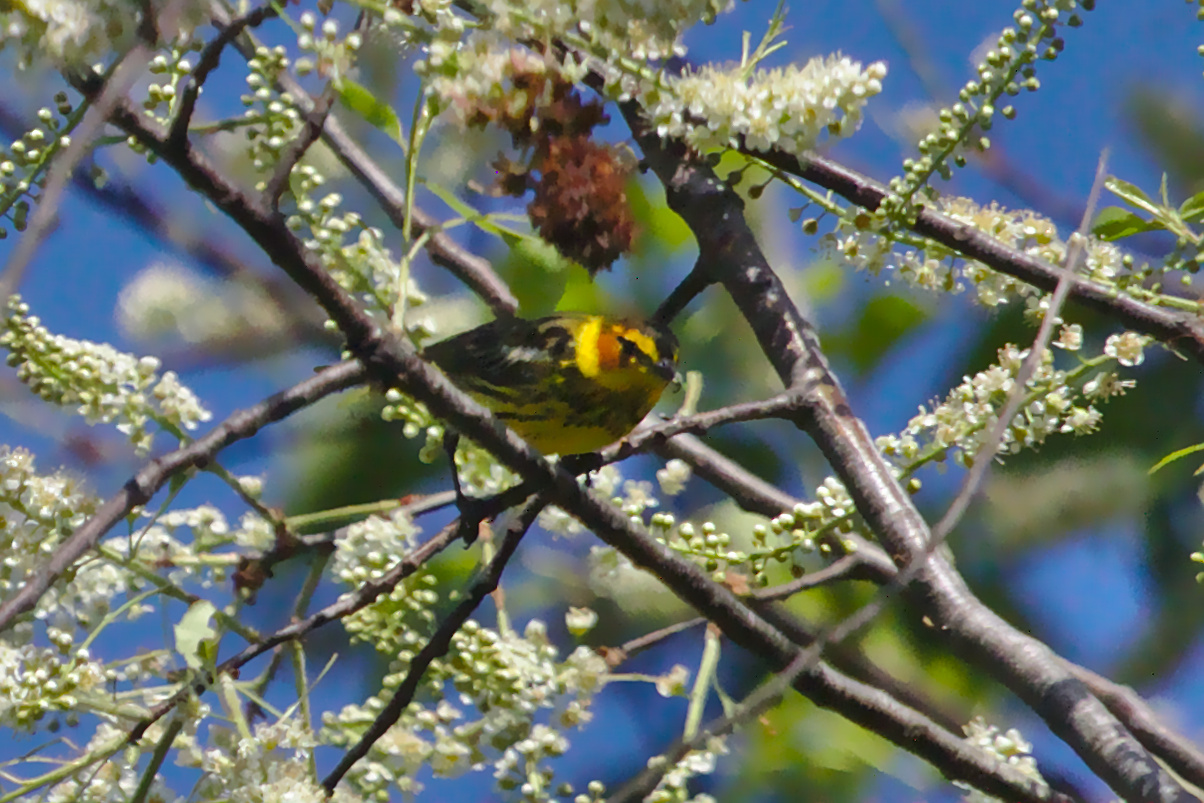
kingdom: Animalia
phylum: Chordata
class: Aves
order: Passeriformes
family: Parulidae
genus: Setophaga
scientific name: Setophaga tigrina
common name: Cape may warbler
